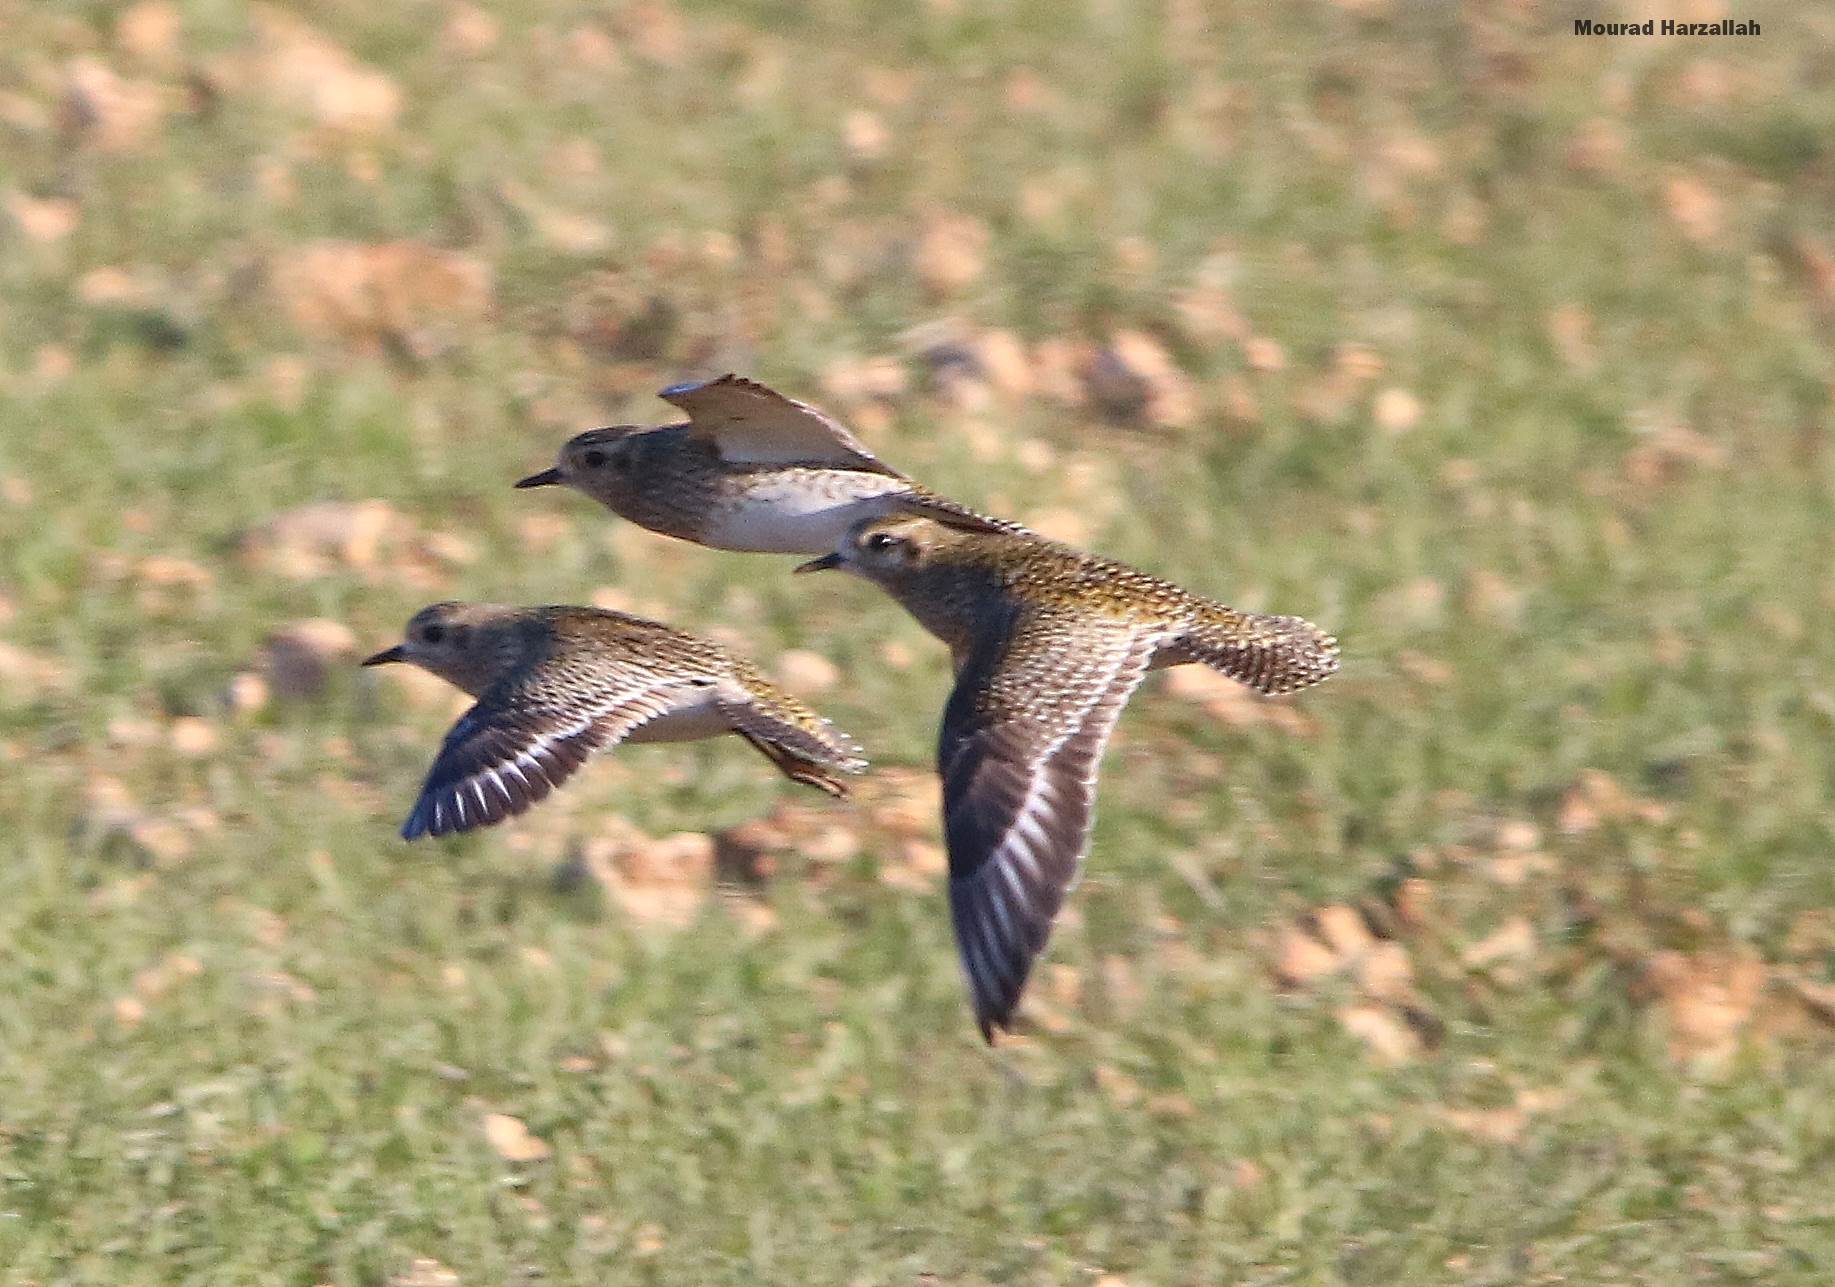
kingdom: Animalia
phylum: Chordata
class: Aves
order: Charadriiformes
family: Charadriidae
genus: Pluvialis
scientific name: Pluvialis apricaria
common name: European golden plover
